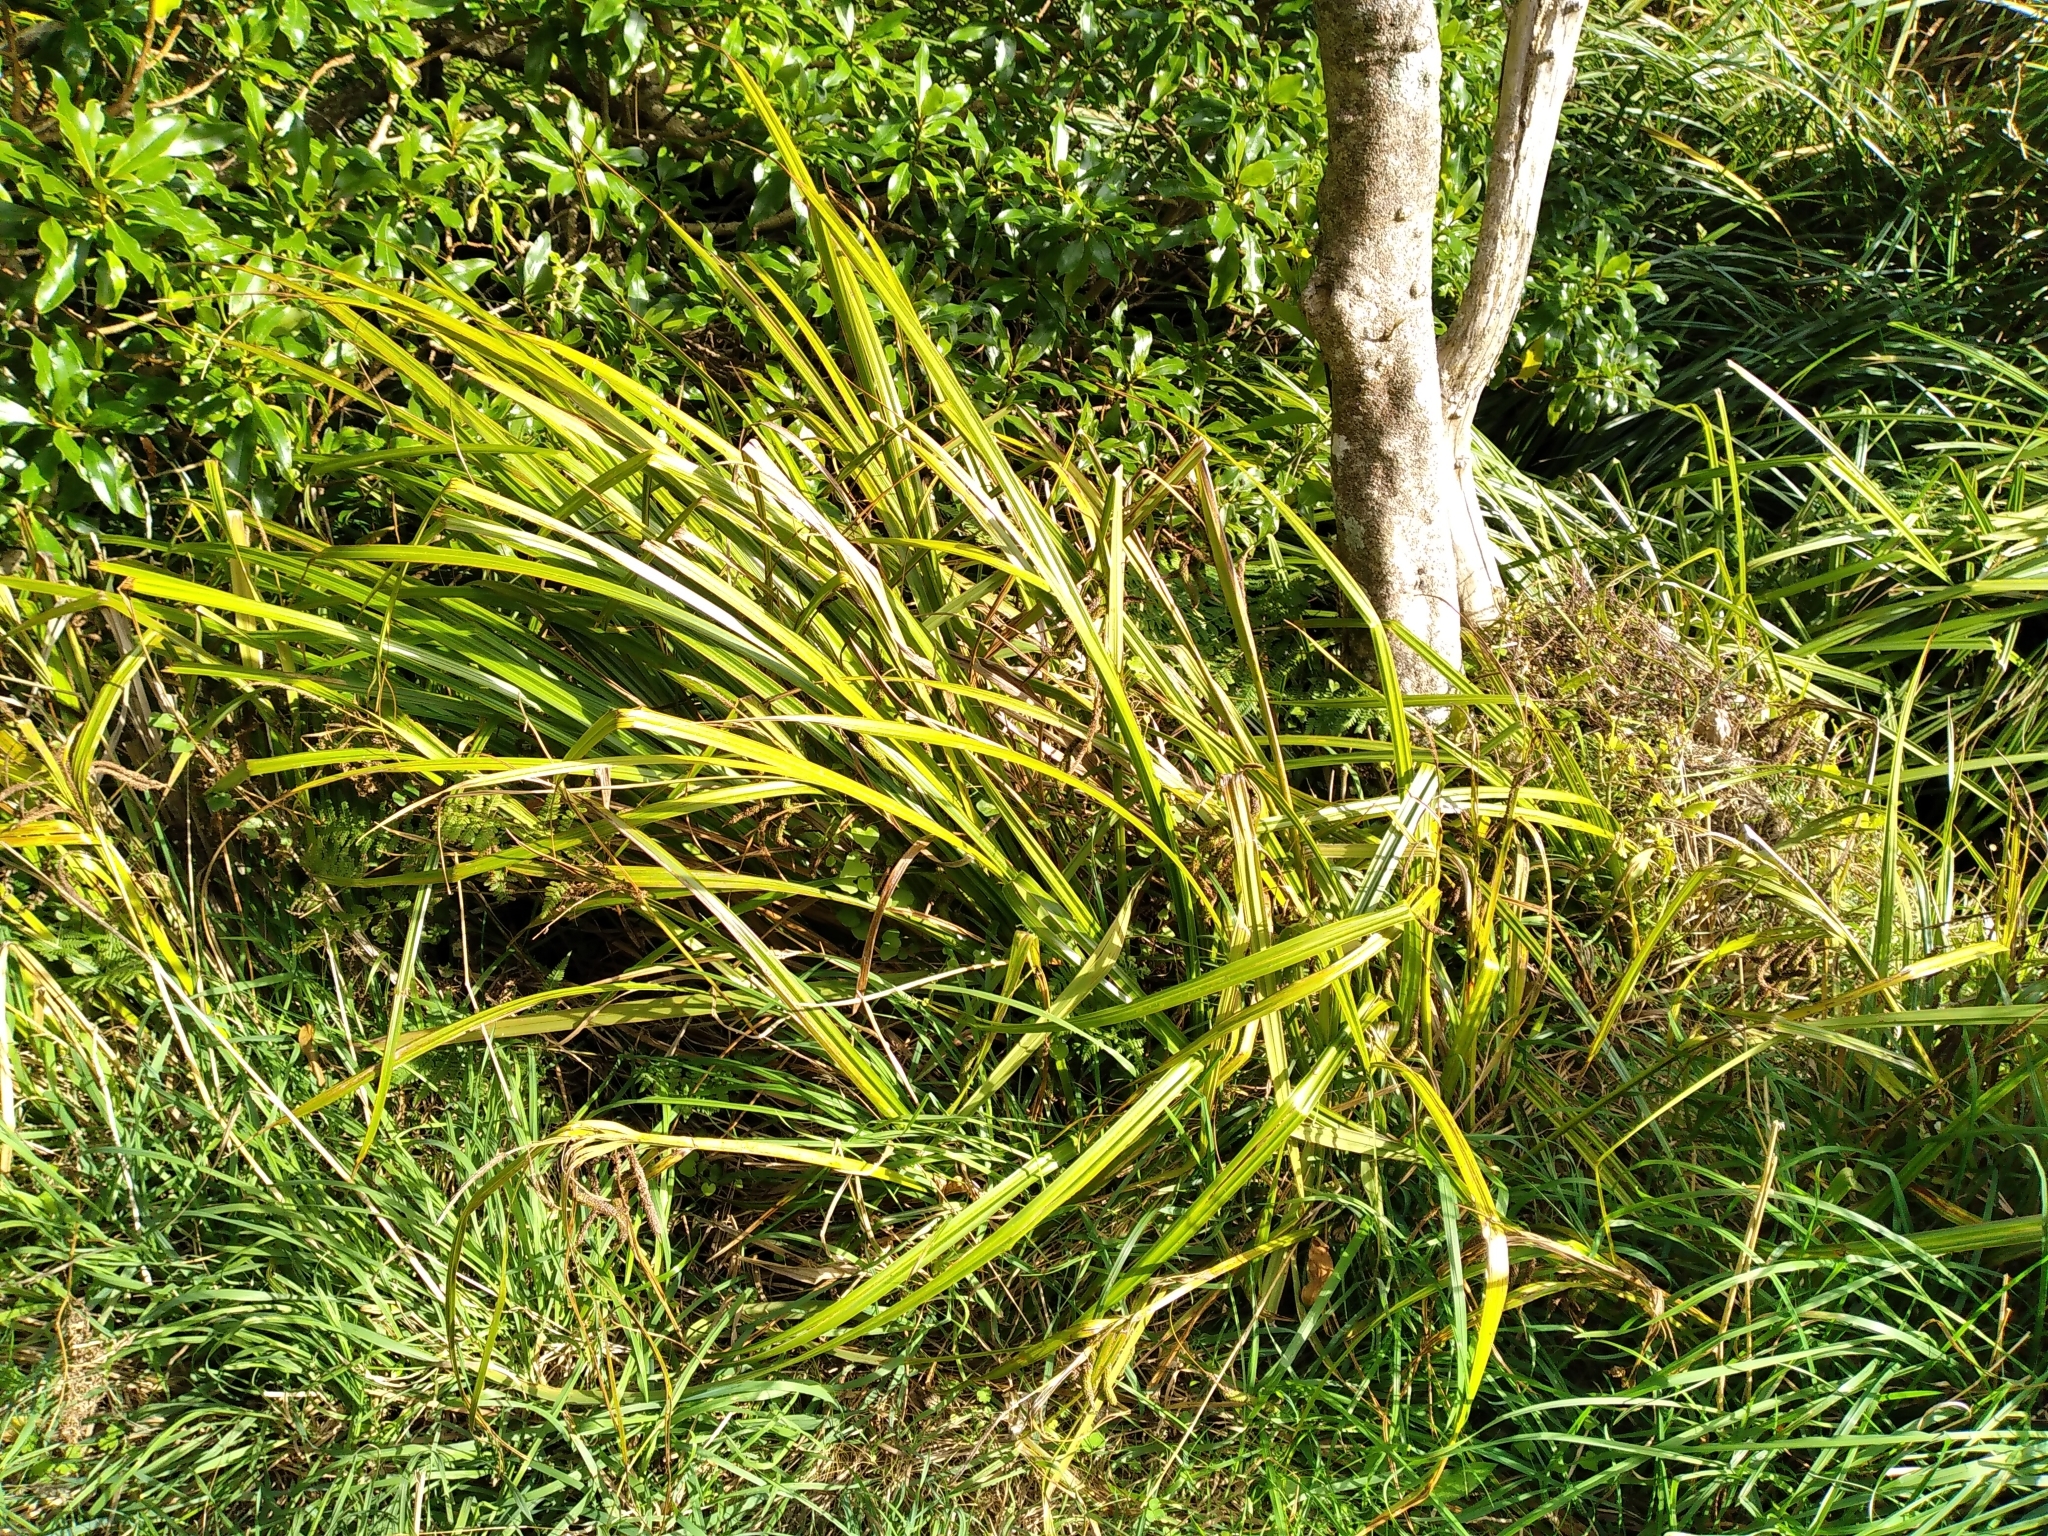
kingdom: Plantae
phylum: Tracheophyta
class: Liliopsida
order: Poales
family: Cyperaceae
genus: Carex
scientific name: Carex geminata
